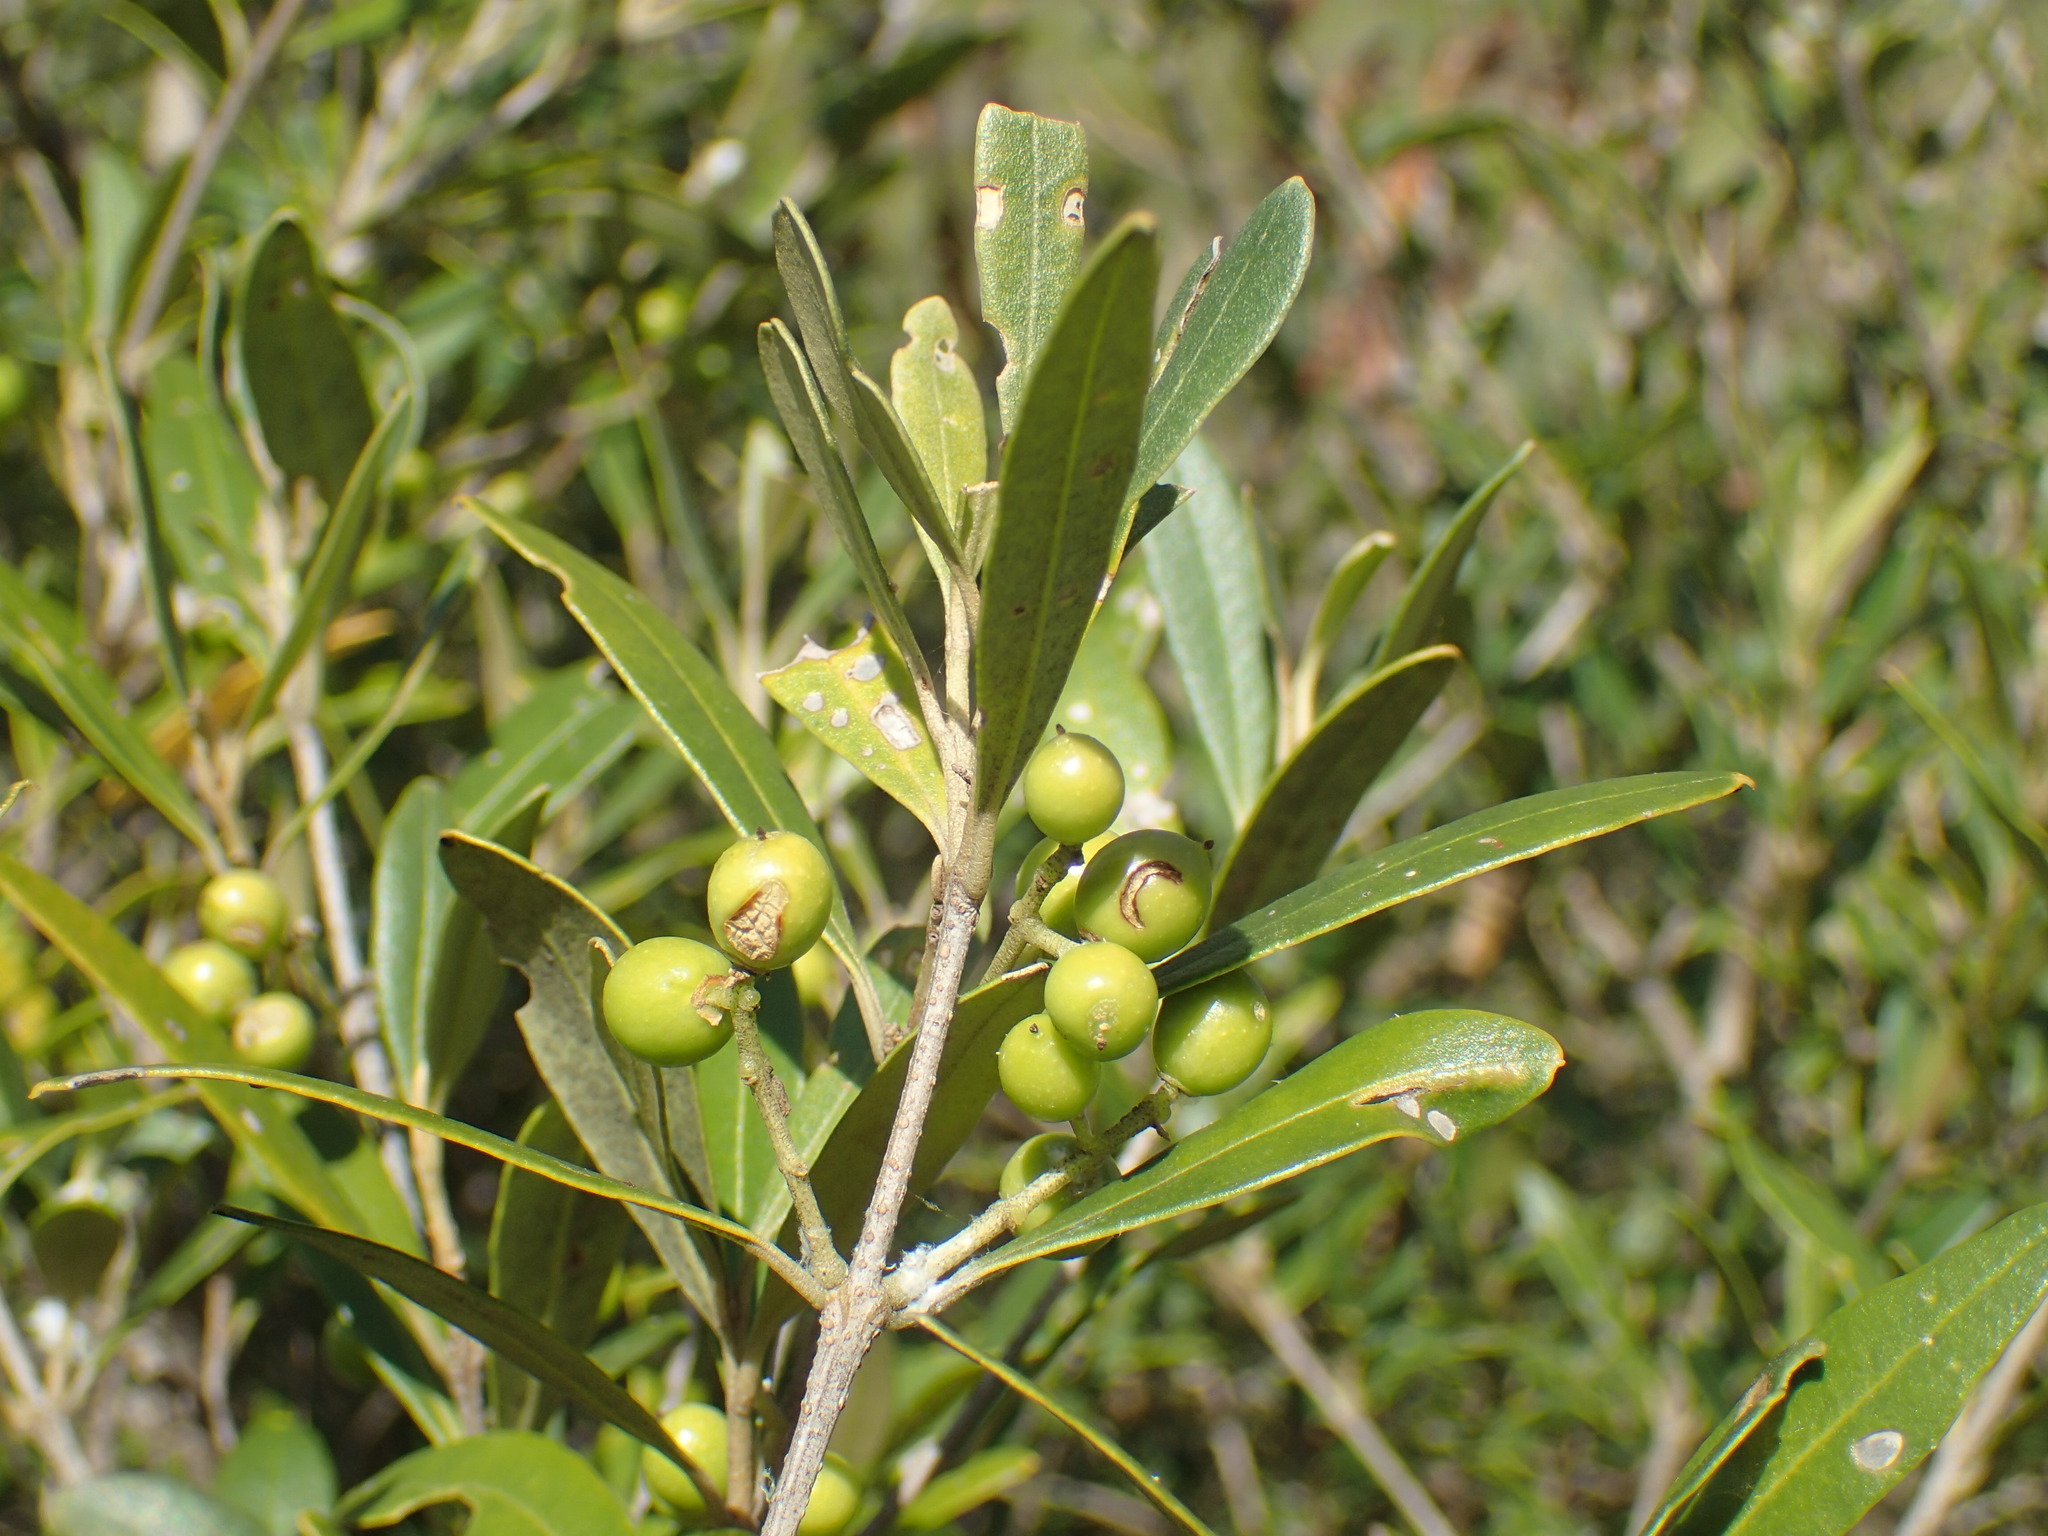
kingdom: Plantae
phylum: Tracheophyta
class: Magnoliopsida
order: Lamiales
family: Oleaceae
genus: Olea
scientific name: Olea europaea
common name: Olive
